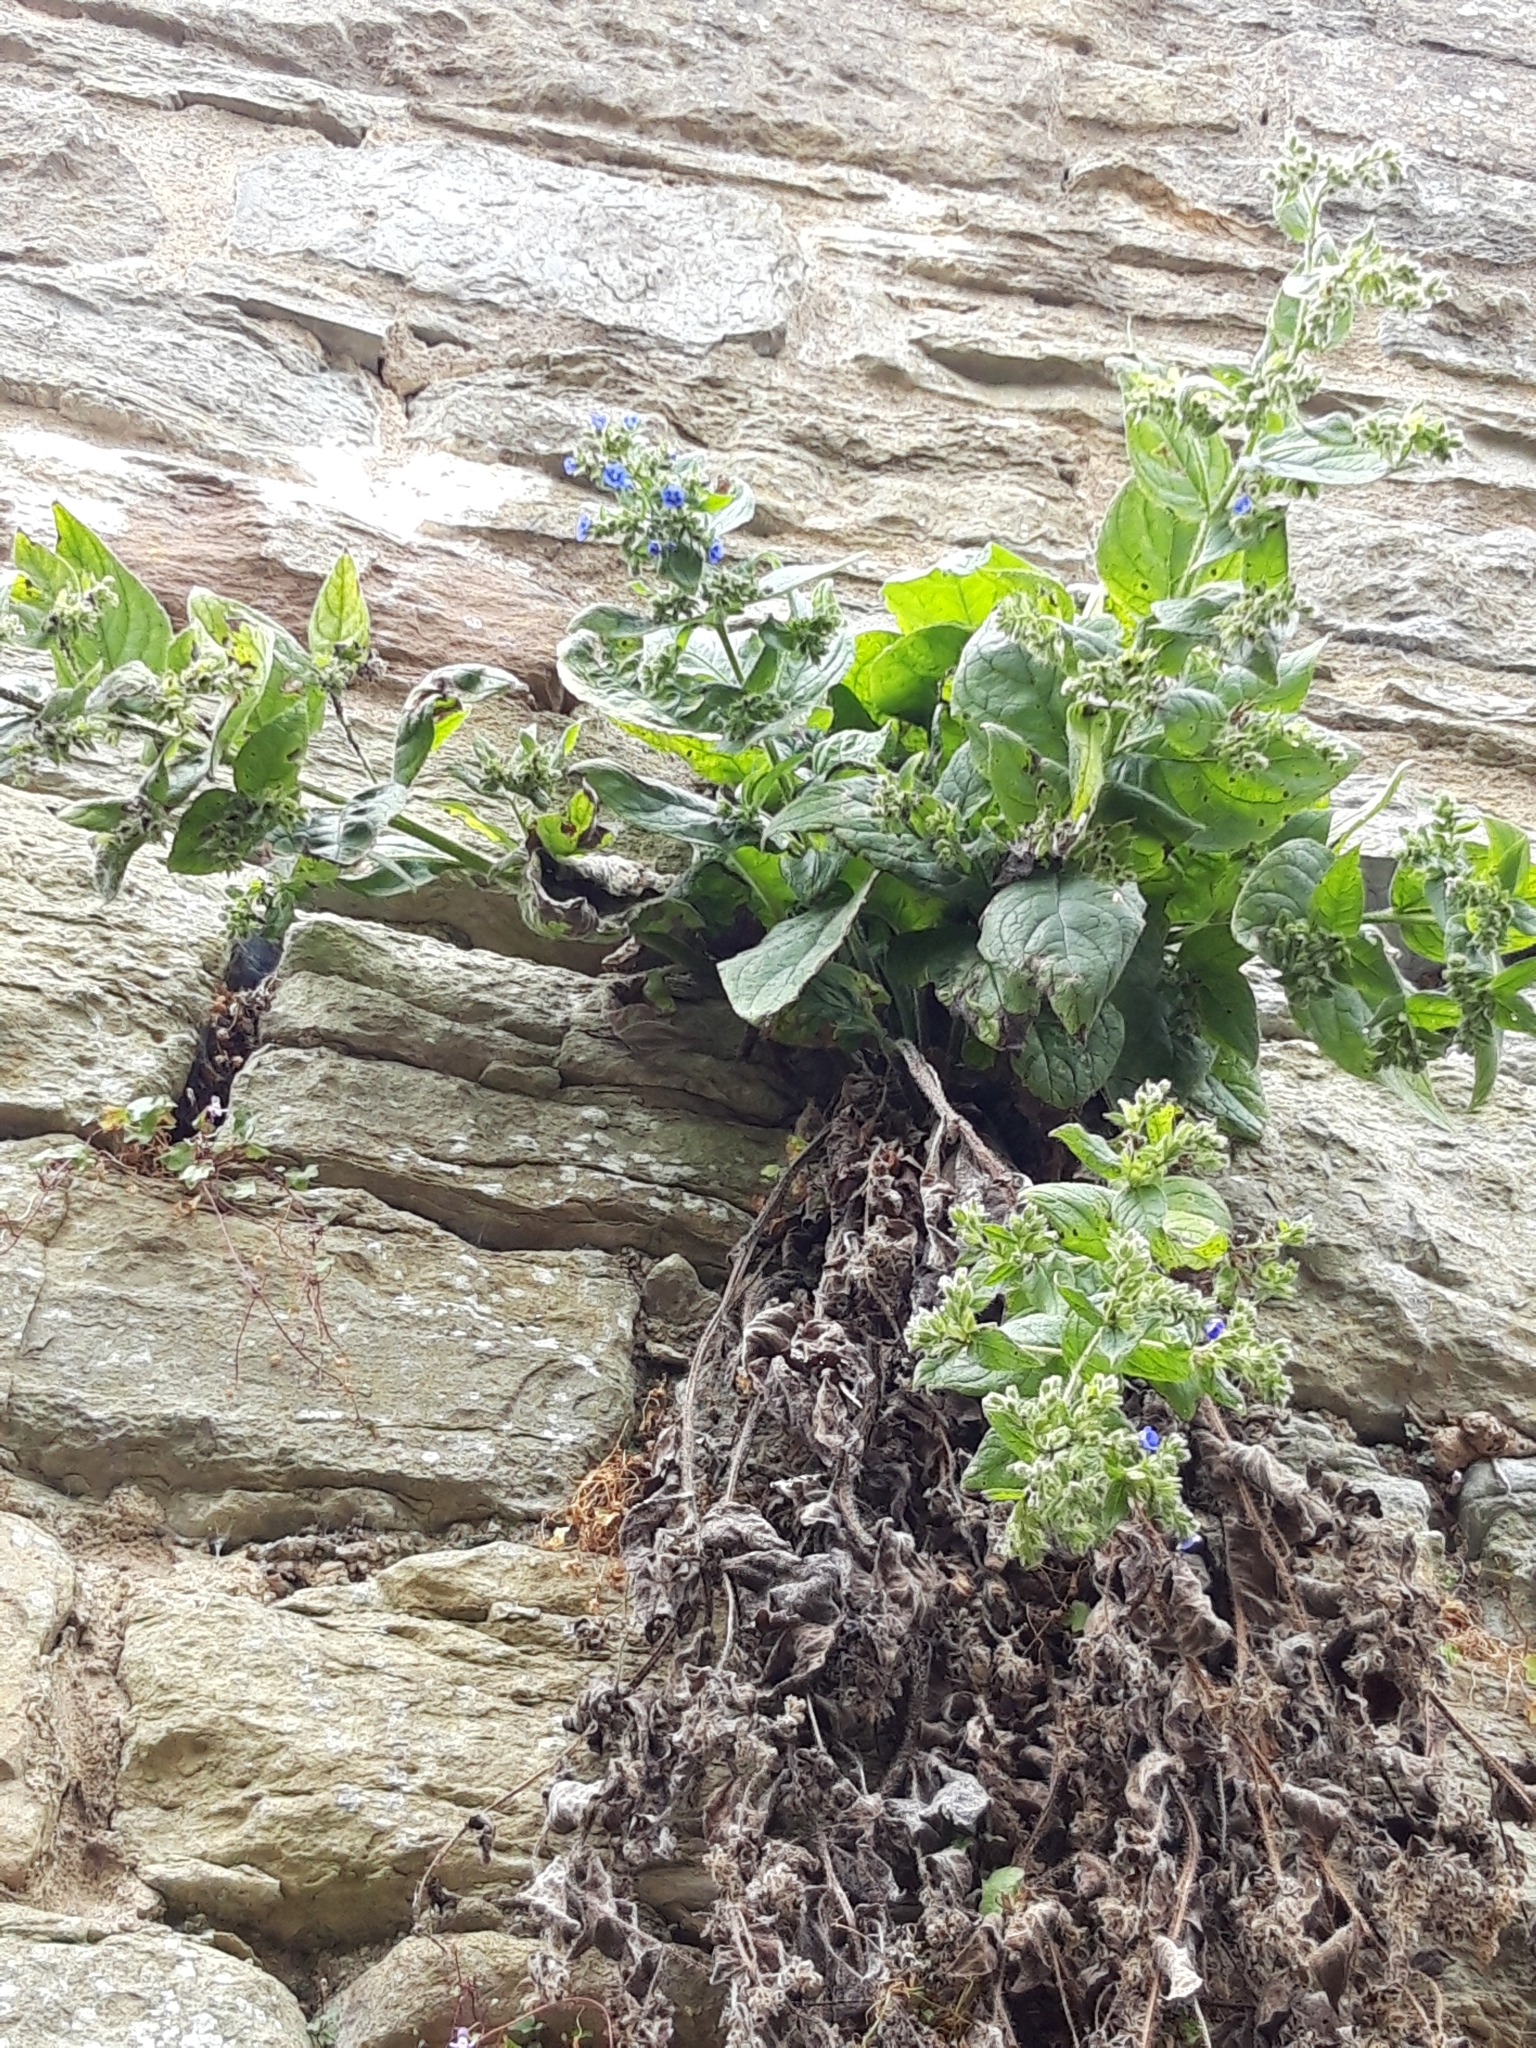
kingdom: Plantae
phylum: Tracheophyta
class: Magnoliopsida
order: Boraginales
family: Boraginaceae
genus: Pentaglottis
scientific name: Pentaglottis sempervirens
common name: Green alkanet
